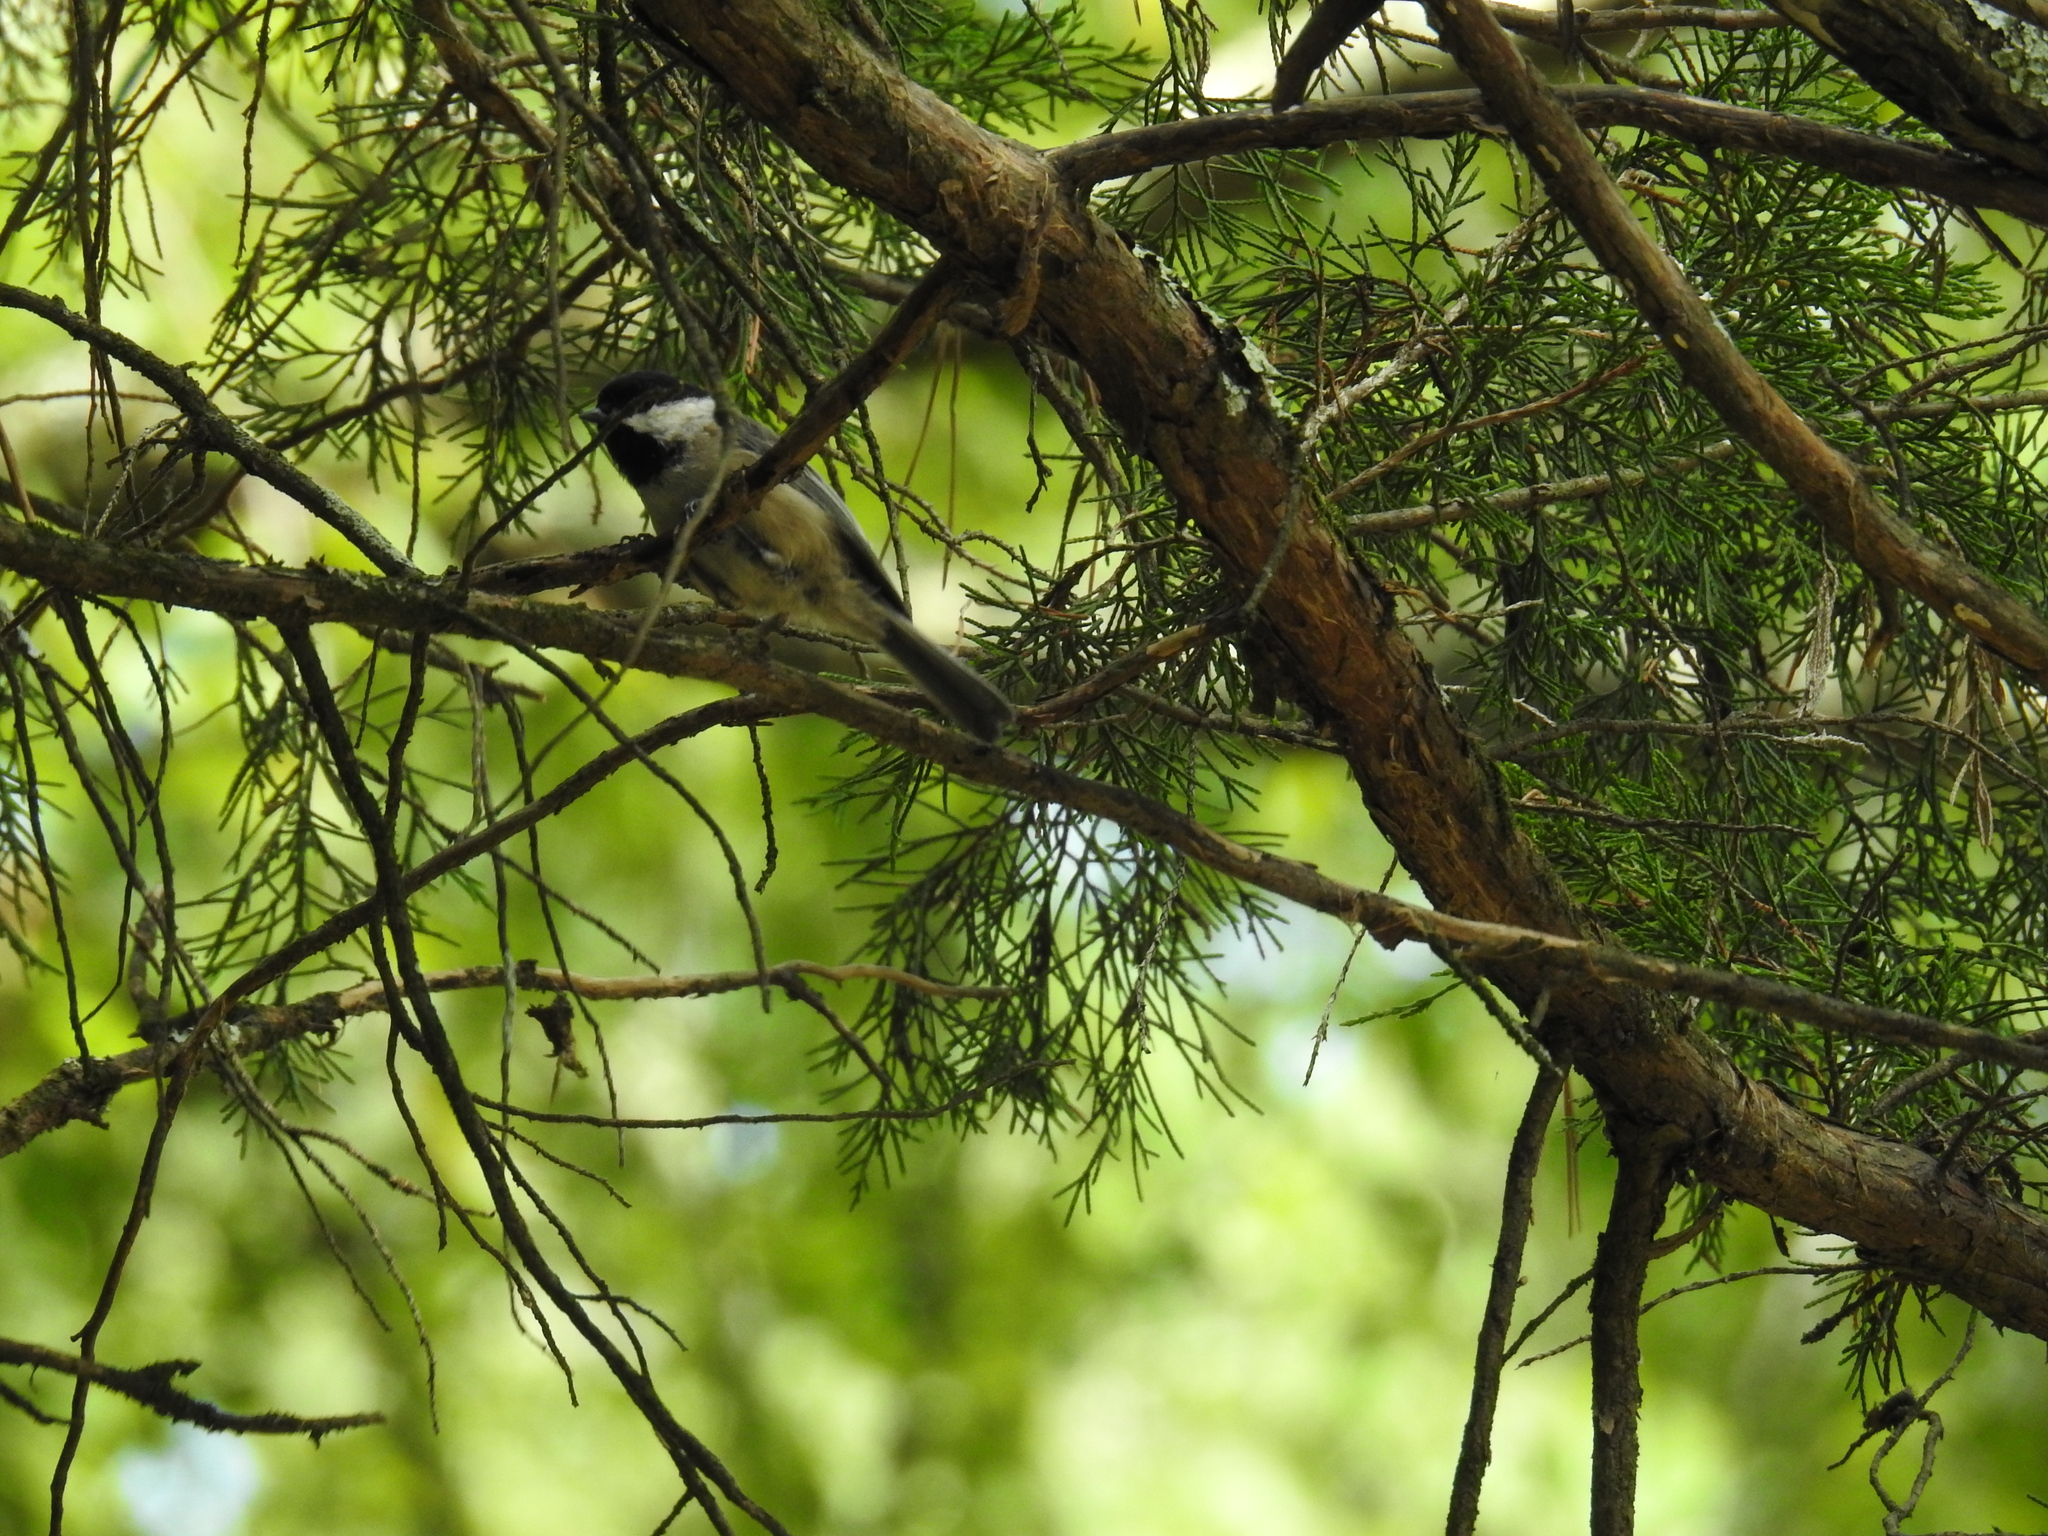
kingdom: Animalia
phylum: Chordata
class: Aves
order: Passeriformes
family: Paridae
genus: Poecile
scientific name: Poecile carolinensis
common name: Carolina chickadee
